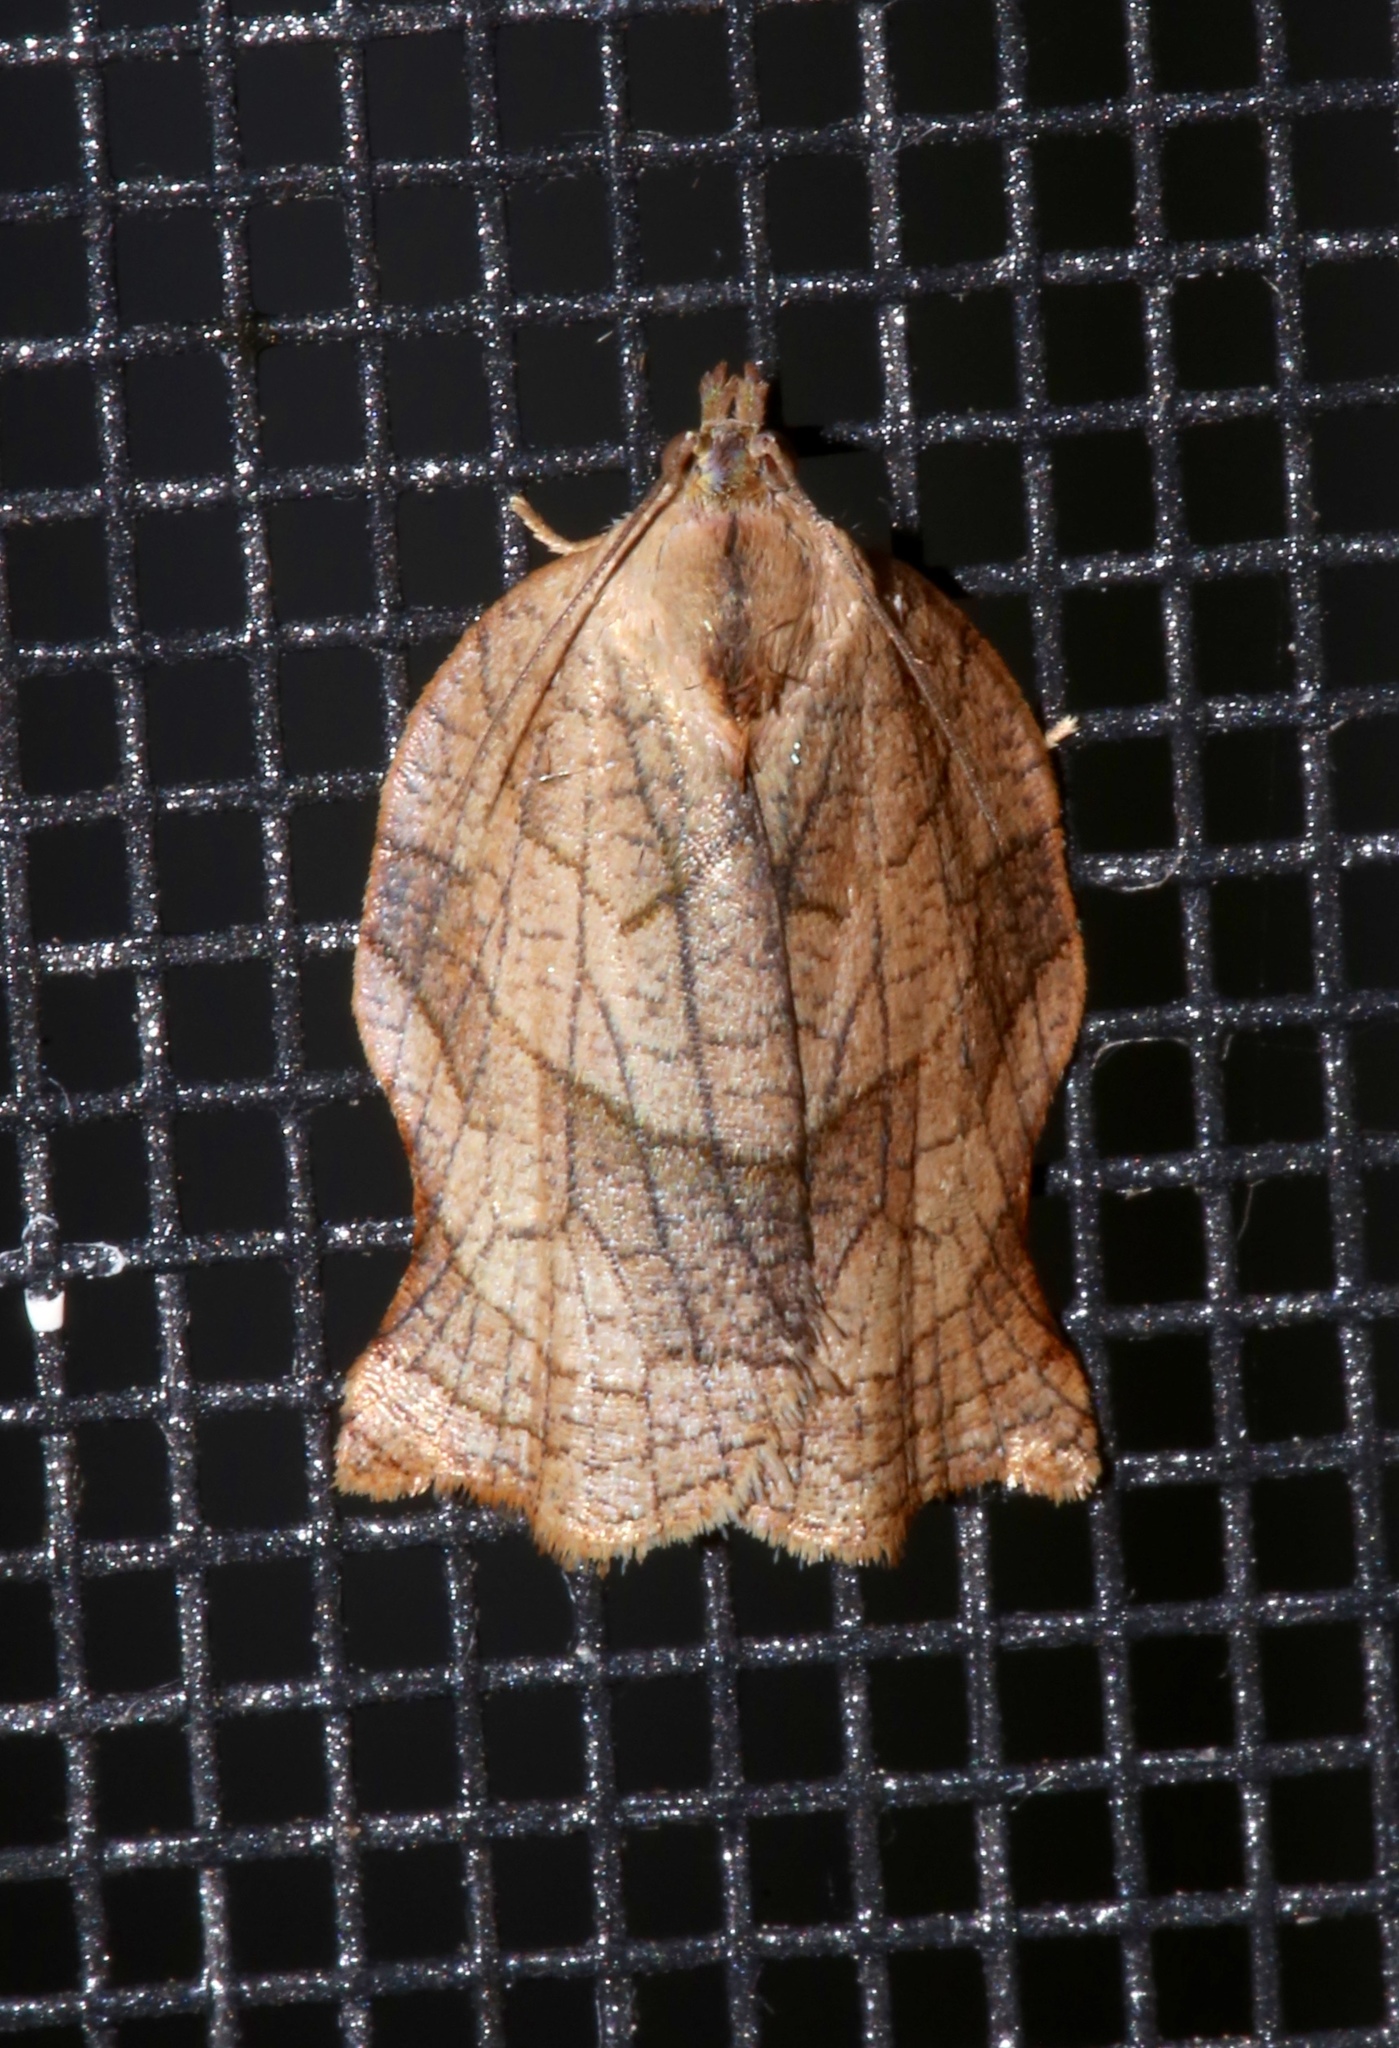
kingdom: Animalia
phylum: Arthropoda
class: Insecta
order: Lepidoptera
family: Tortricidae
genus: Archips
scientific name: Archips purpurana
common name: Omnivorous leafroller
